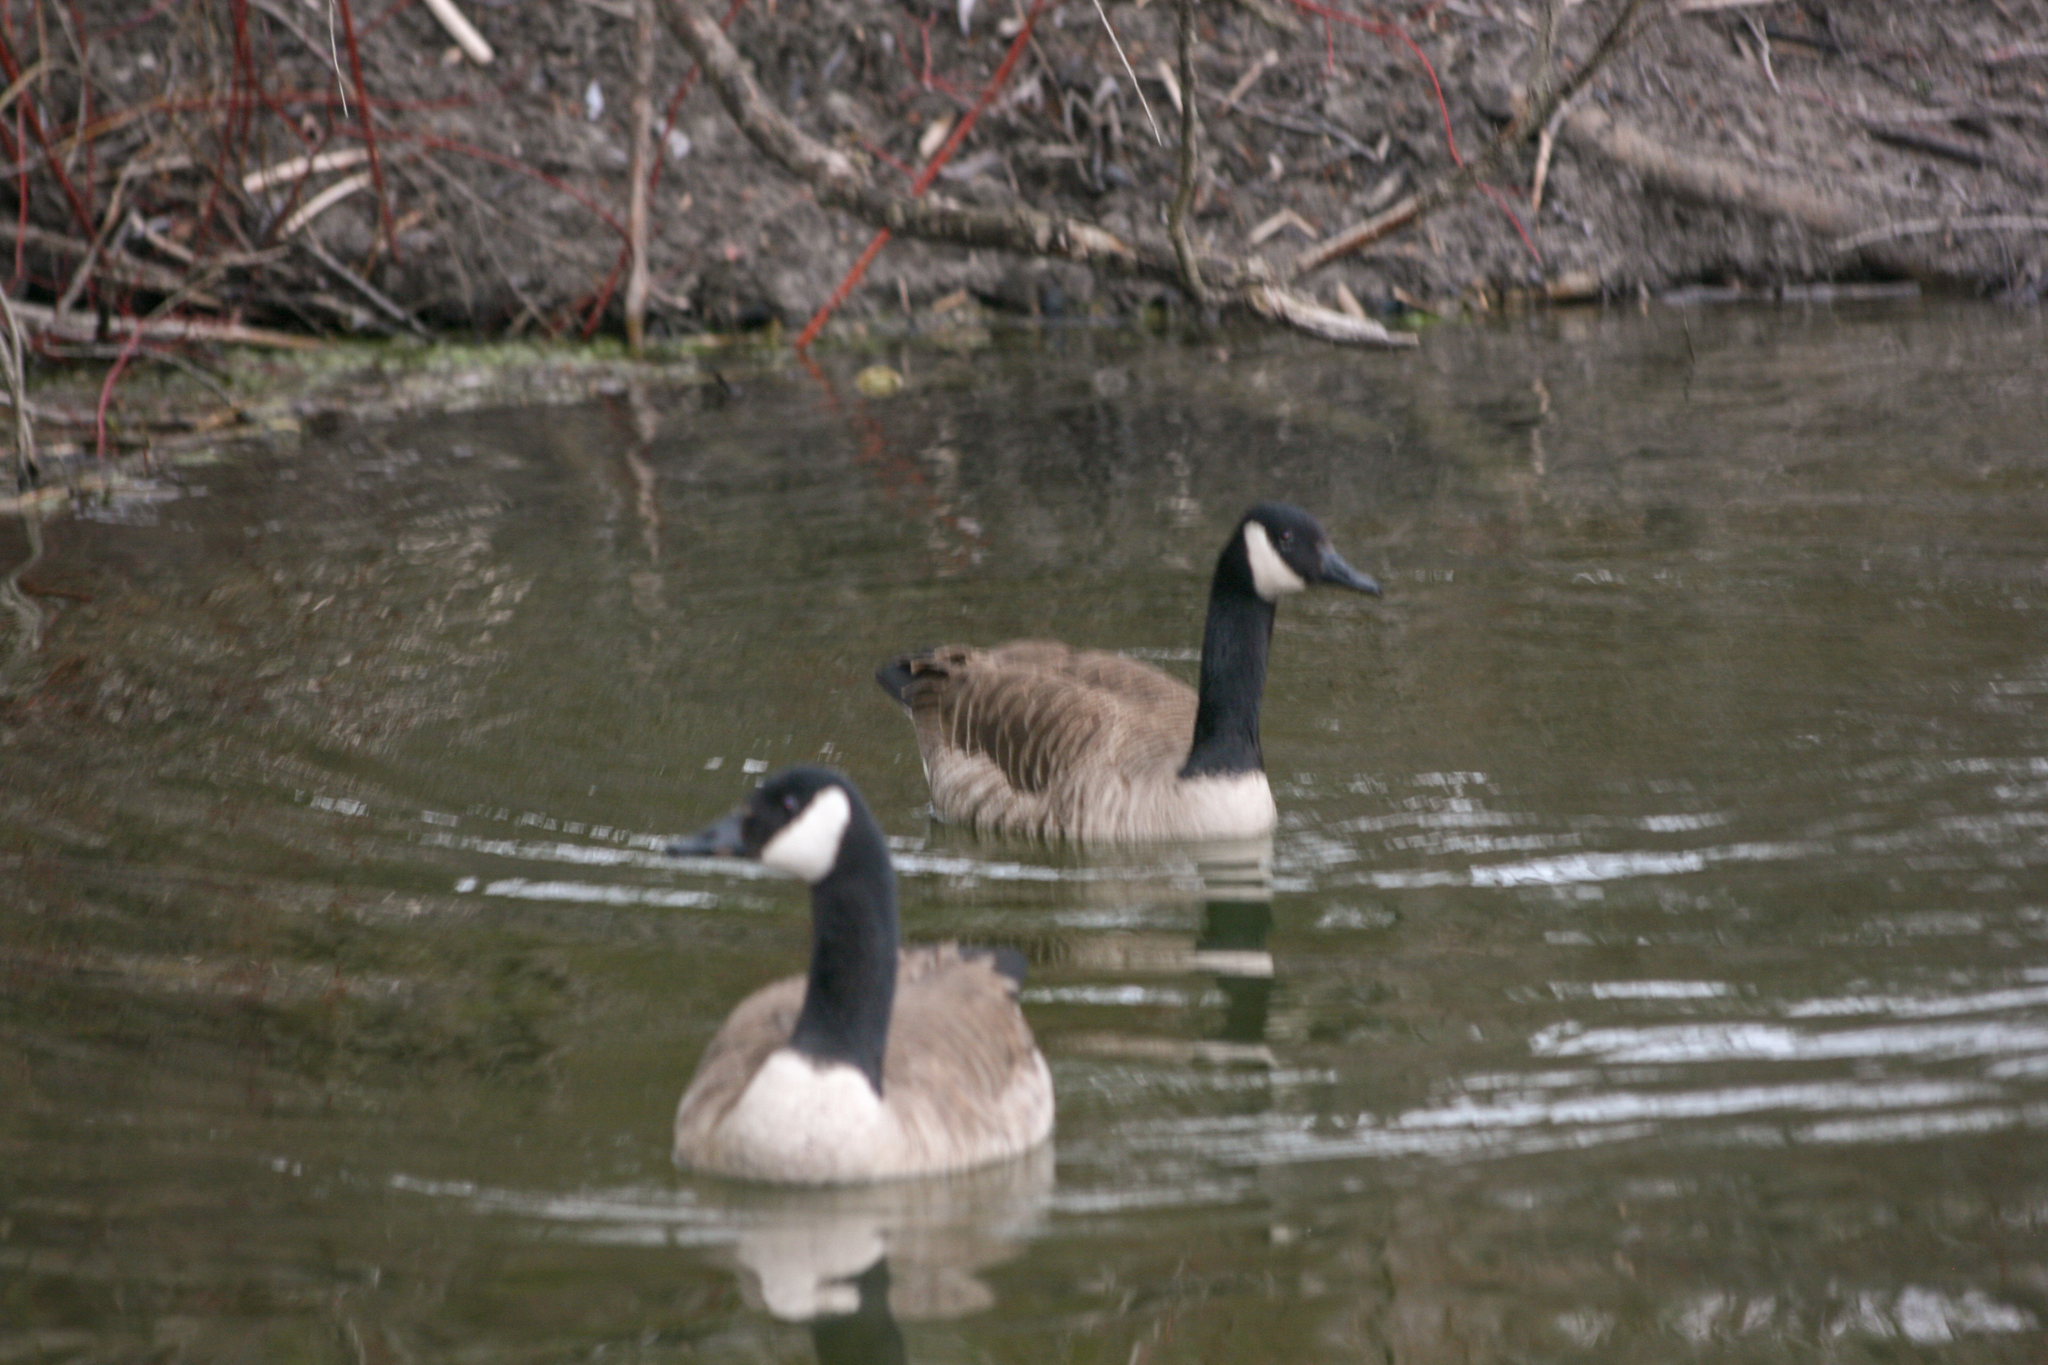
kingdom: Animalia
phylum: Chordata
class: Aves
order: Anseriformes
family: Anatidae
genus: Branta
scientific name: Branta canadensis
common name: Canada goose
